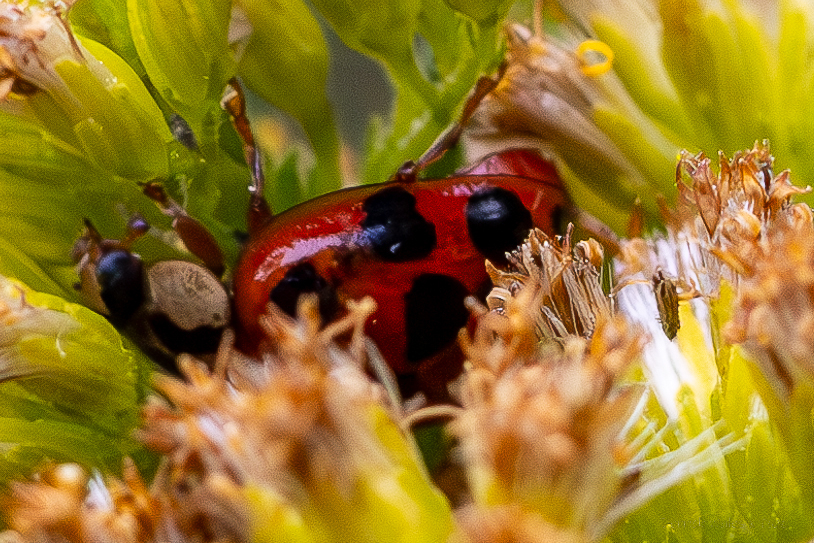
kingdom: Animalia
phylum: Arthropoda
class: Insecta
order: Coleoptera
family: Coccinellidae
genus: Harmonia
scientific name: Harmonia axyridis
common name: Harlequin ladybird
